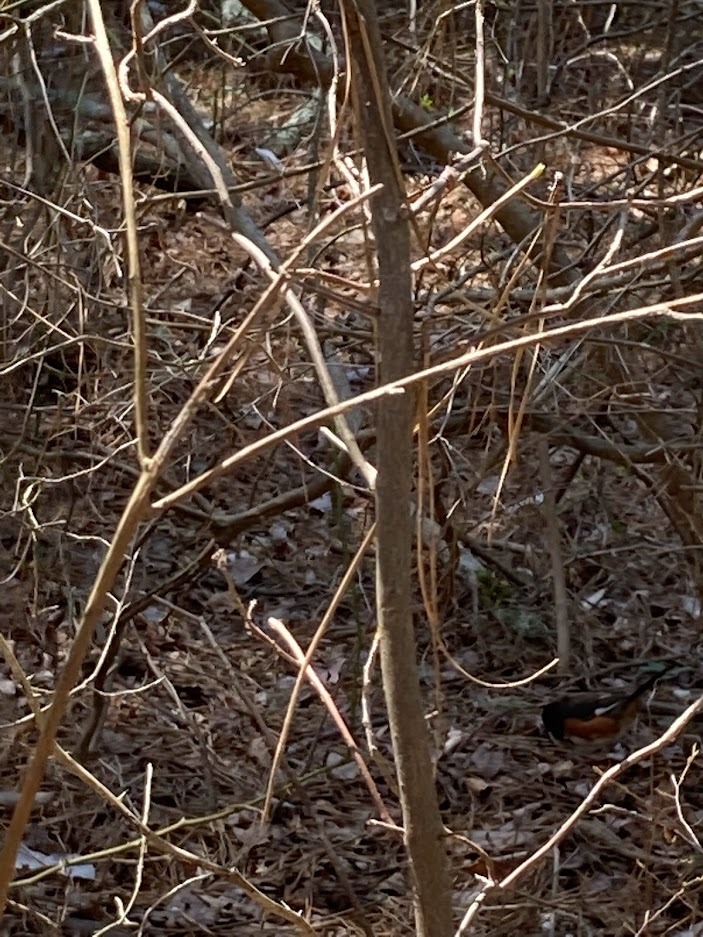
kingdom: Animalia
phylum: Chordata
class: Aves
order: Passeriformes
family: Passerellidae
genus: Pipilo
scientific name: Pipilo erythrophthalmus
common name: Eastern towhee
